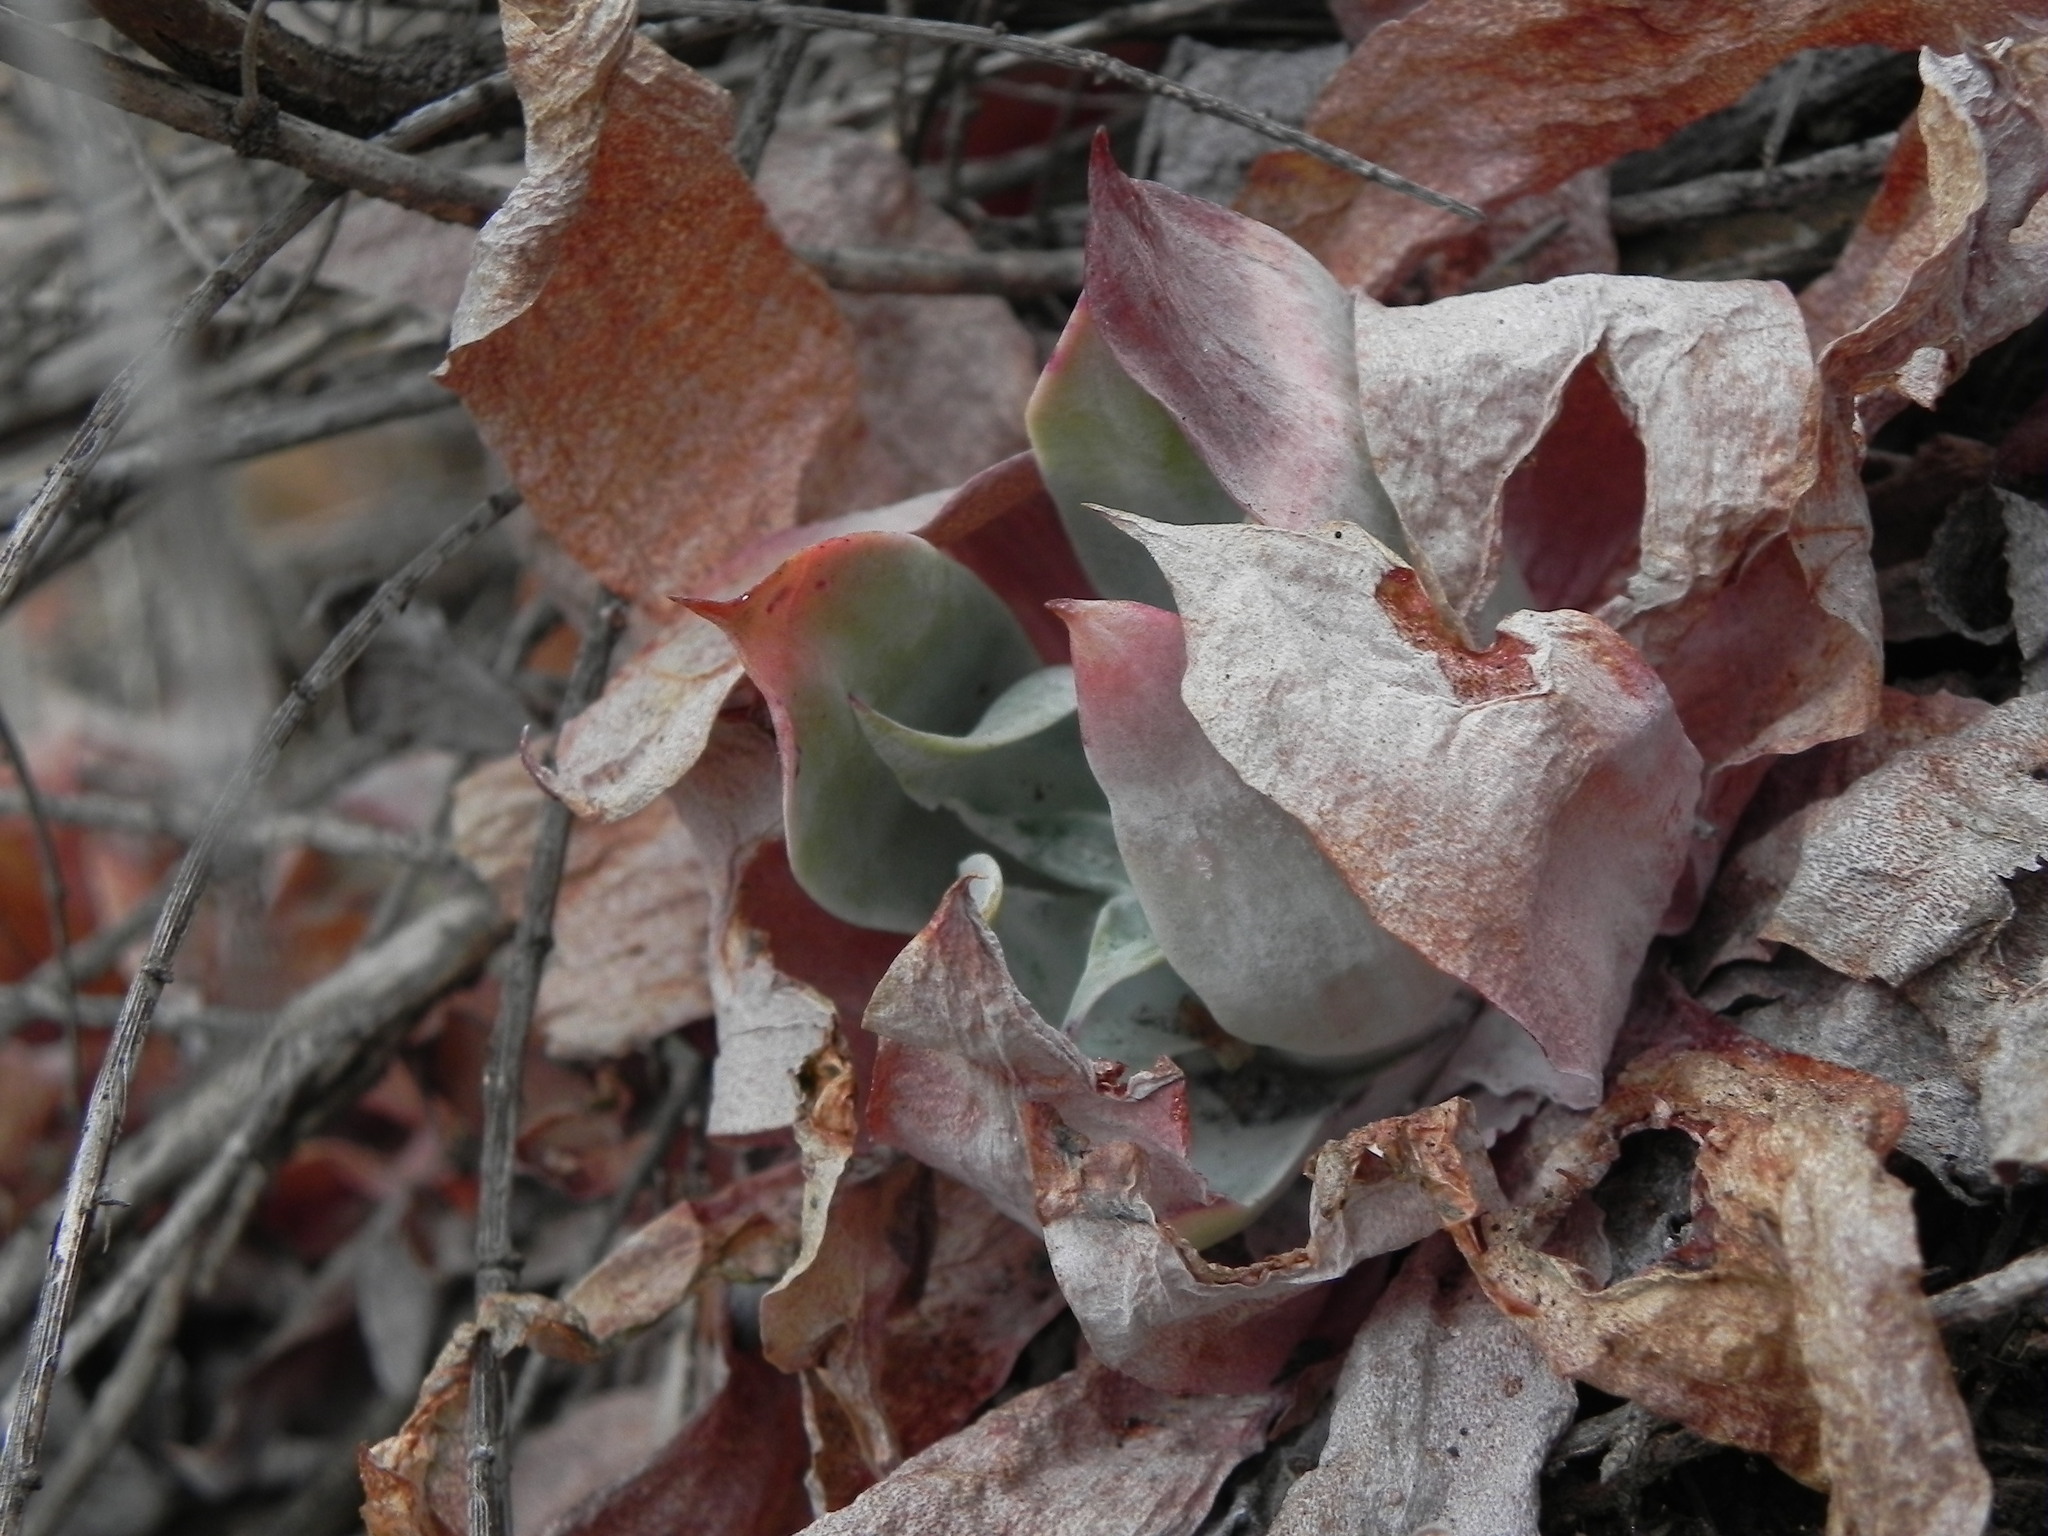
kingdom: Plantae
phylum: Tracheophyta
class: Magnoliopsida
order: Saxifragales
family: Crassulaceae
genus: Dudleya
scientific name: Dudleya pulverulenta
